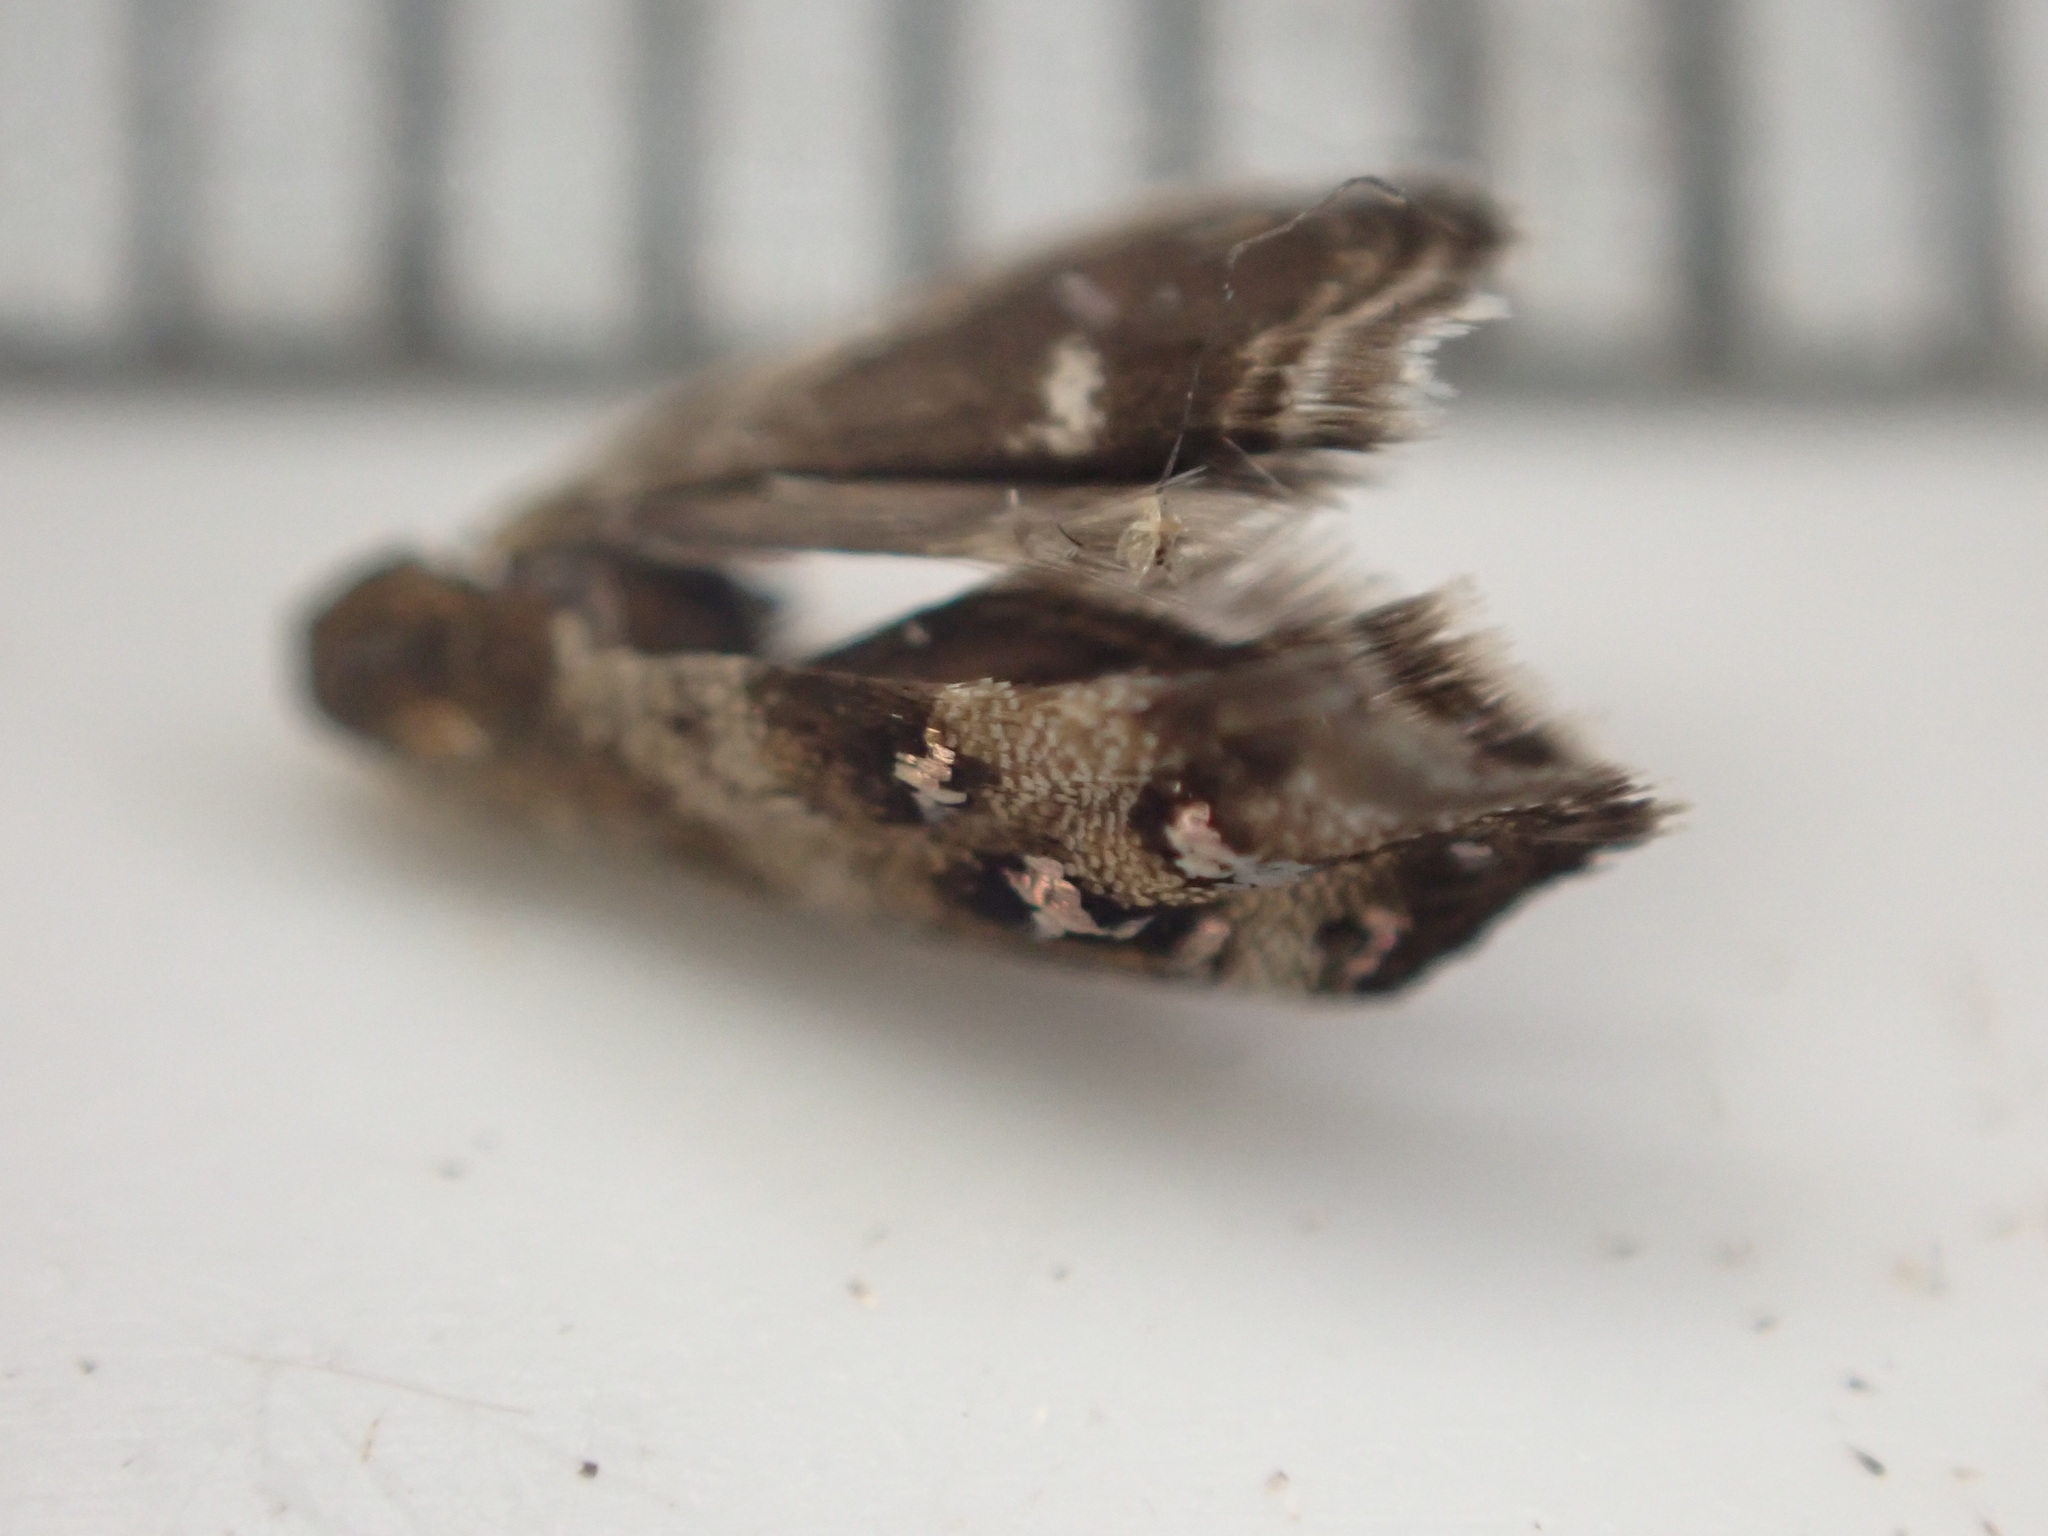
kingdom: Animalia
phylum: Arthropoda
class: Insecta
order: Lepidoptera
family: Choreutidae
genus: Tebenna
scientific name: Tebenna micalis
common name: Vagrant twitcher
